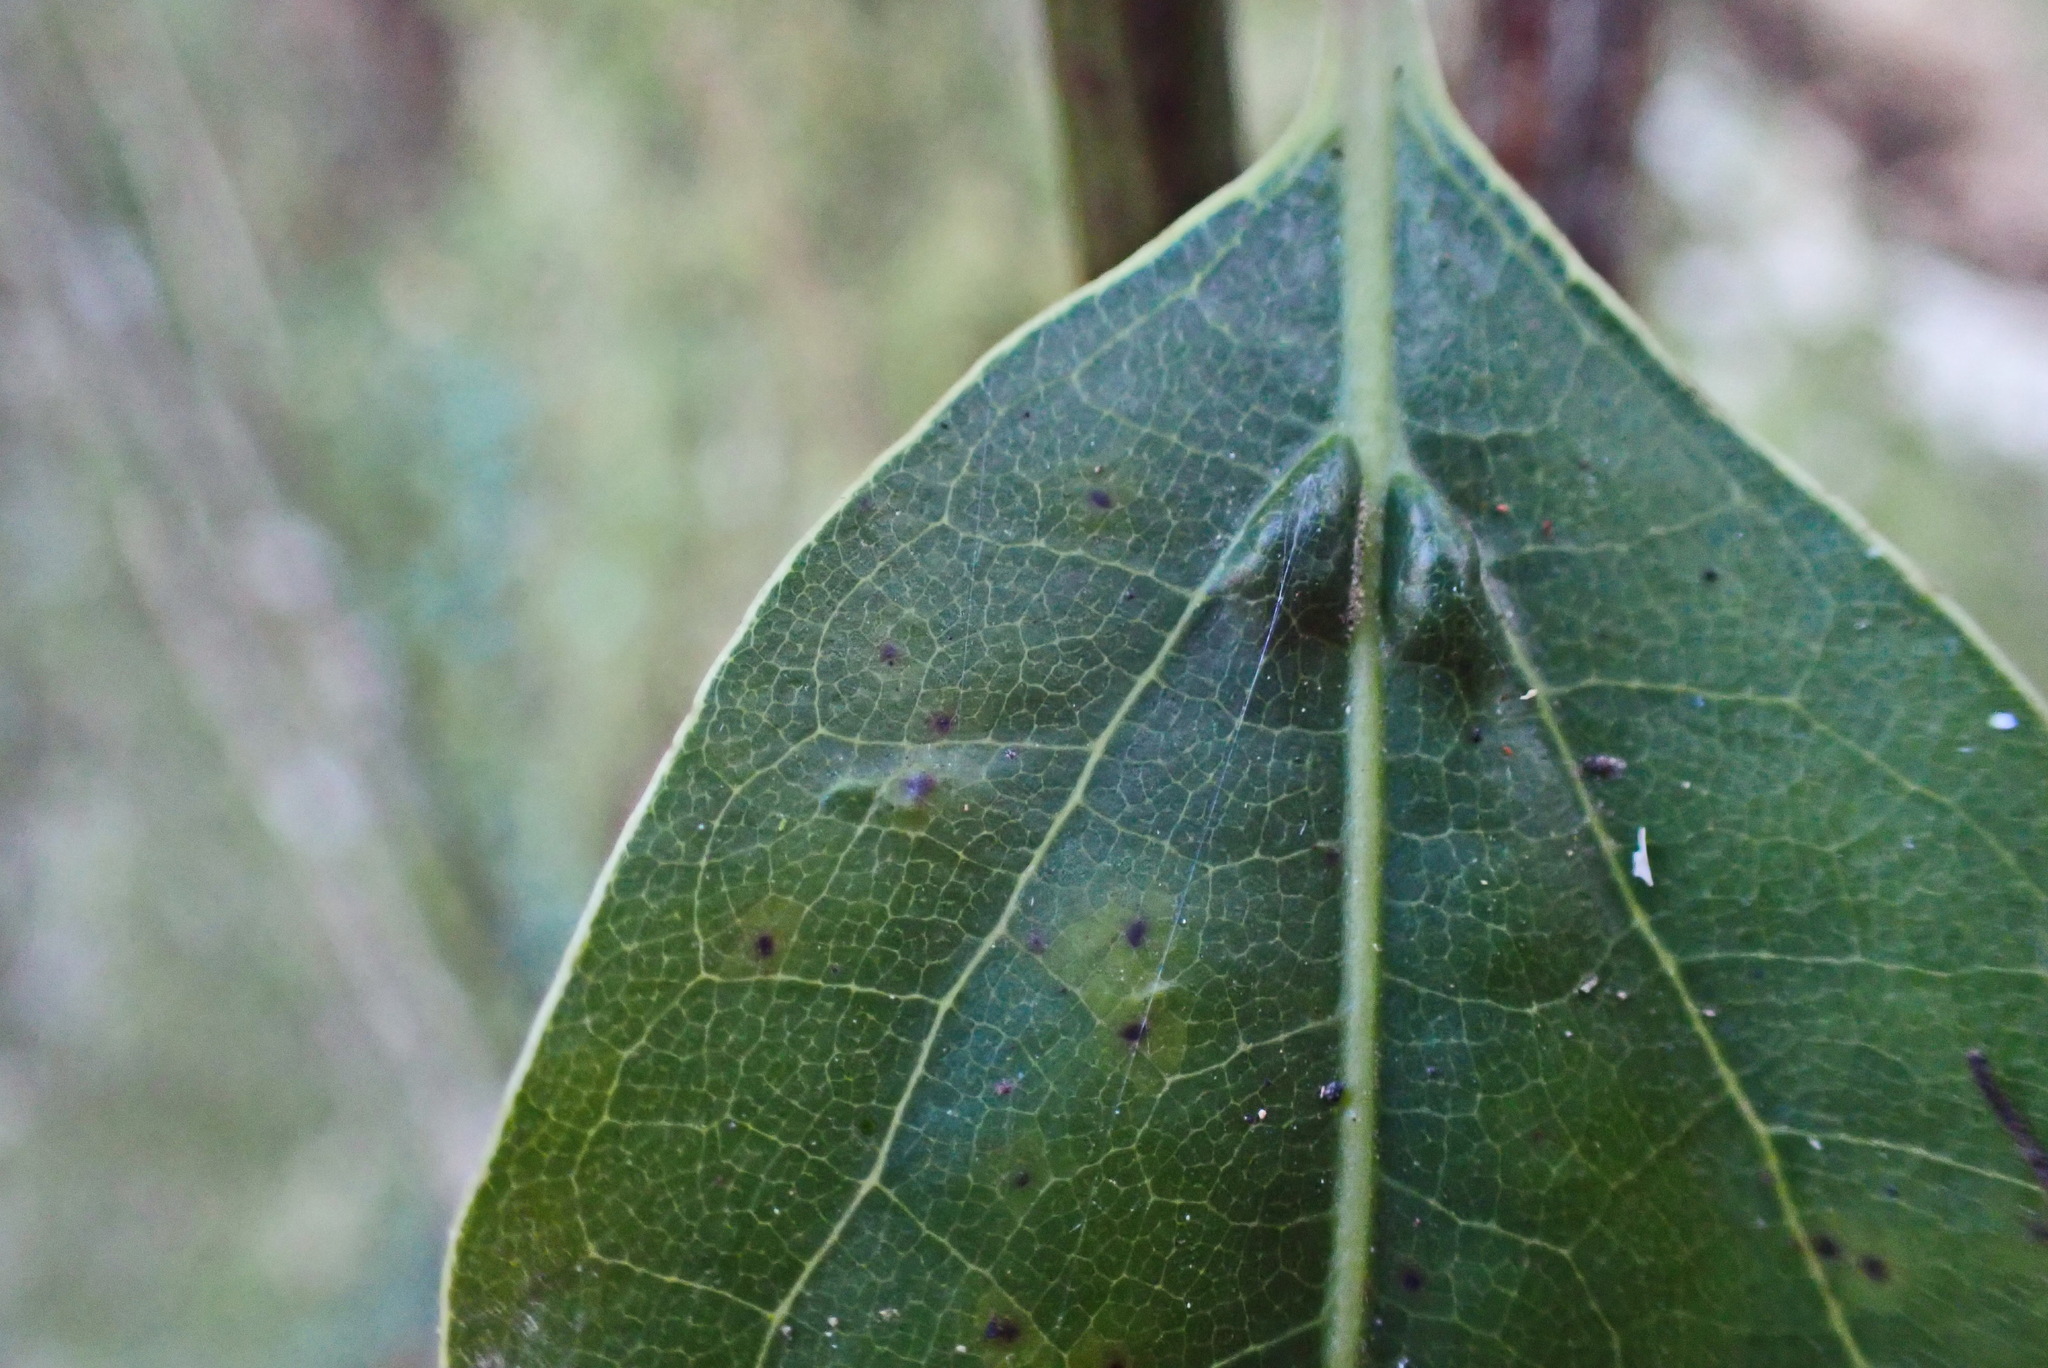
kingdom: Plantae
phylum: Tracheophyta
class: Magnoliopsida
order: Laurales
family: Lauraceae
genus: Ocotea
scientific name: Ocotea bullata
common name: Black stinkwood
